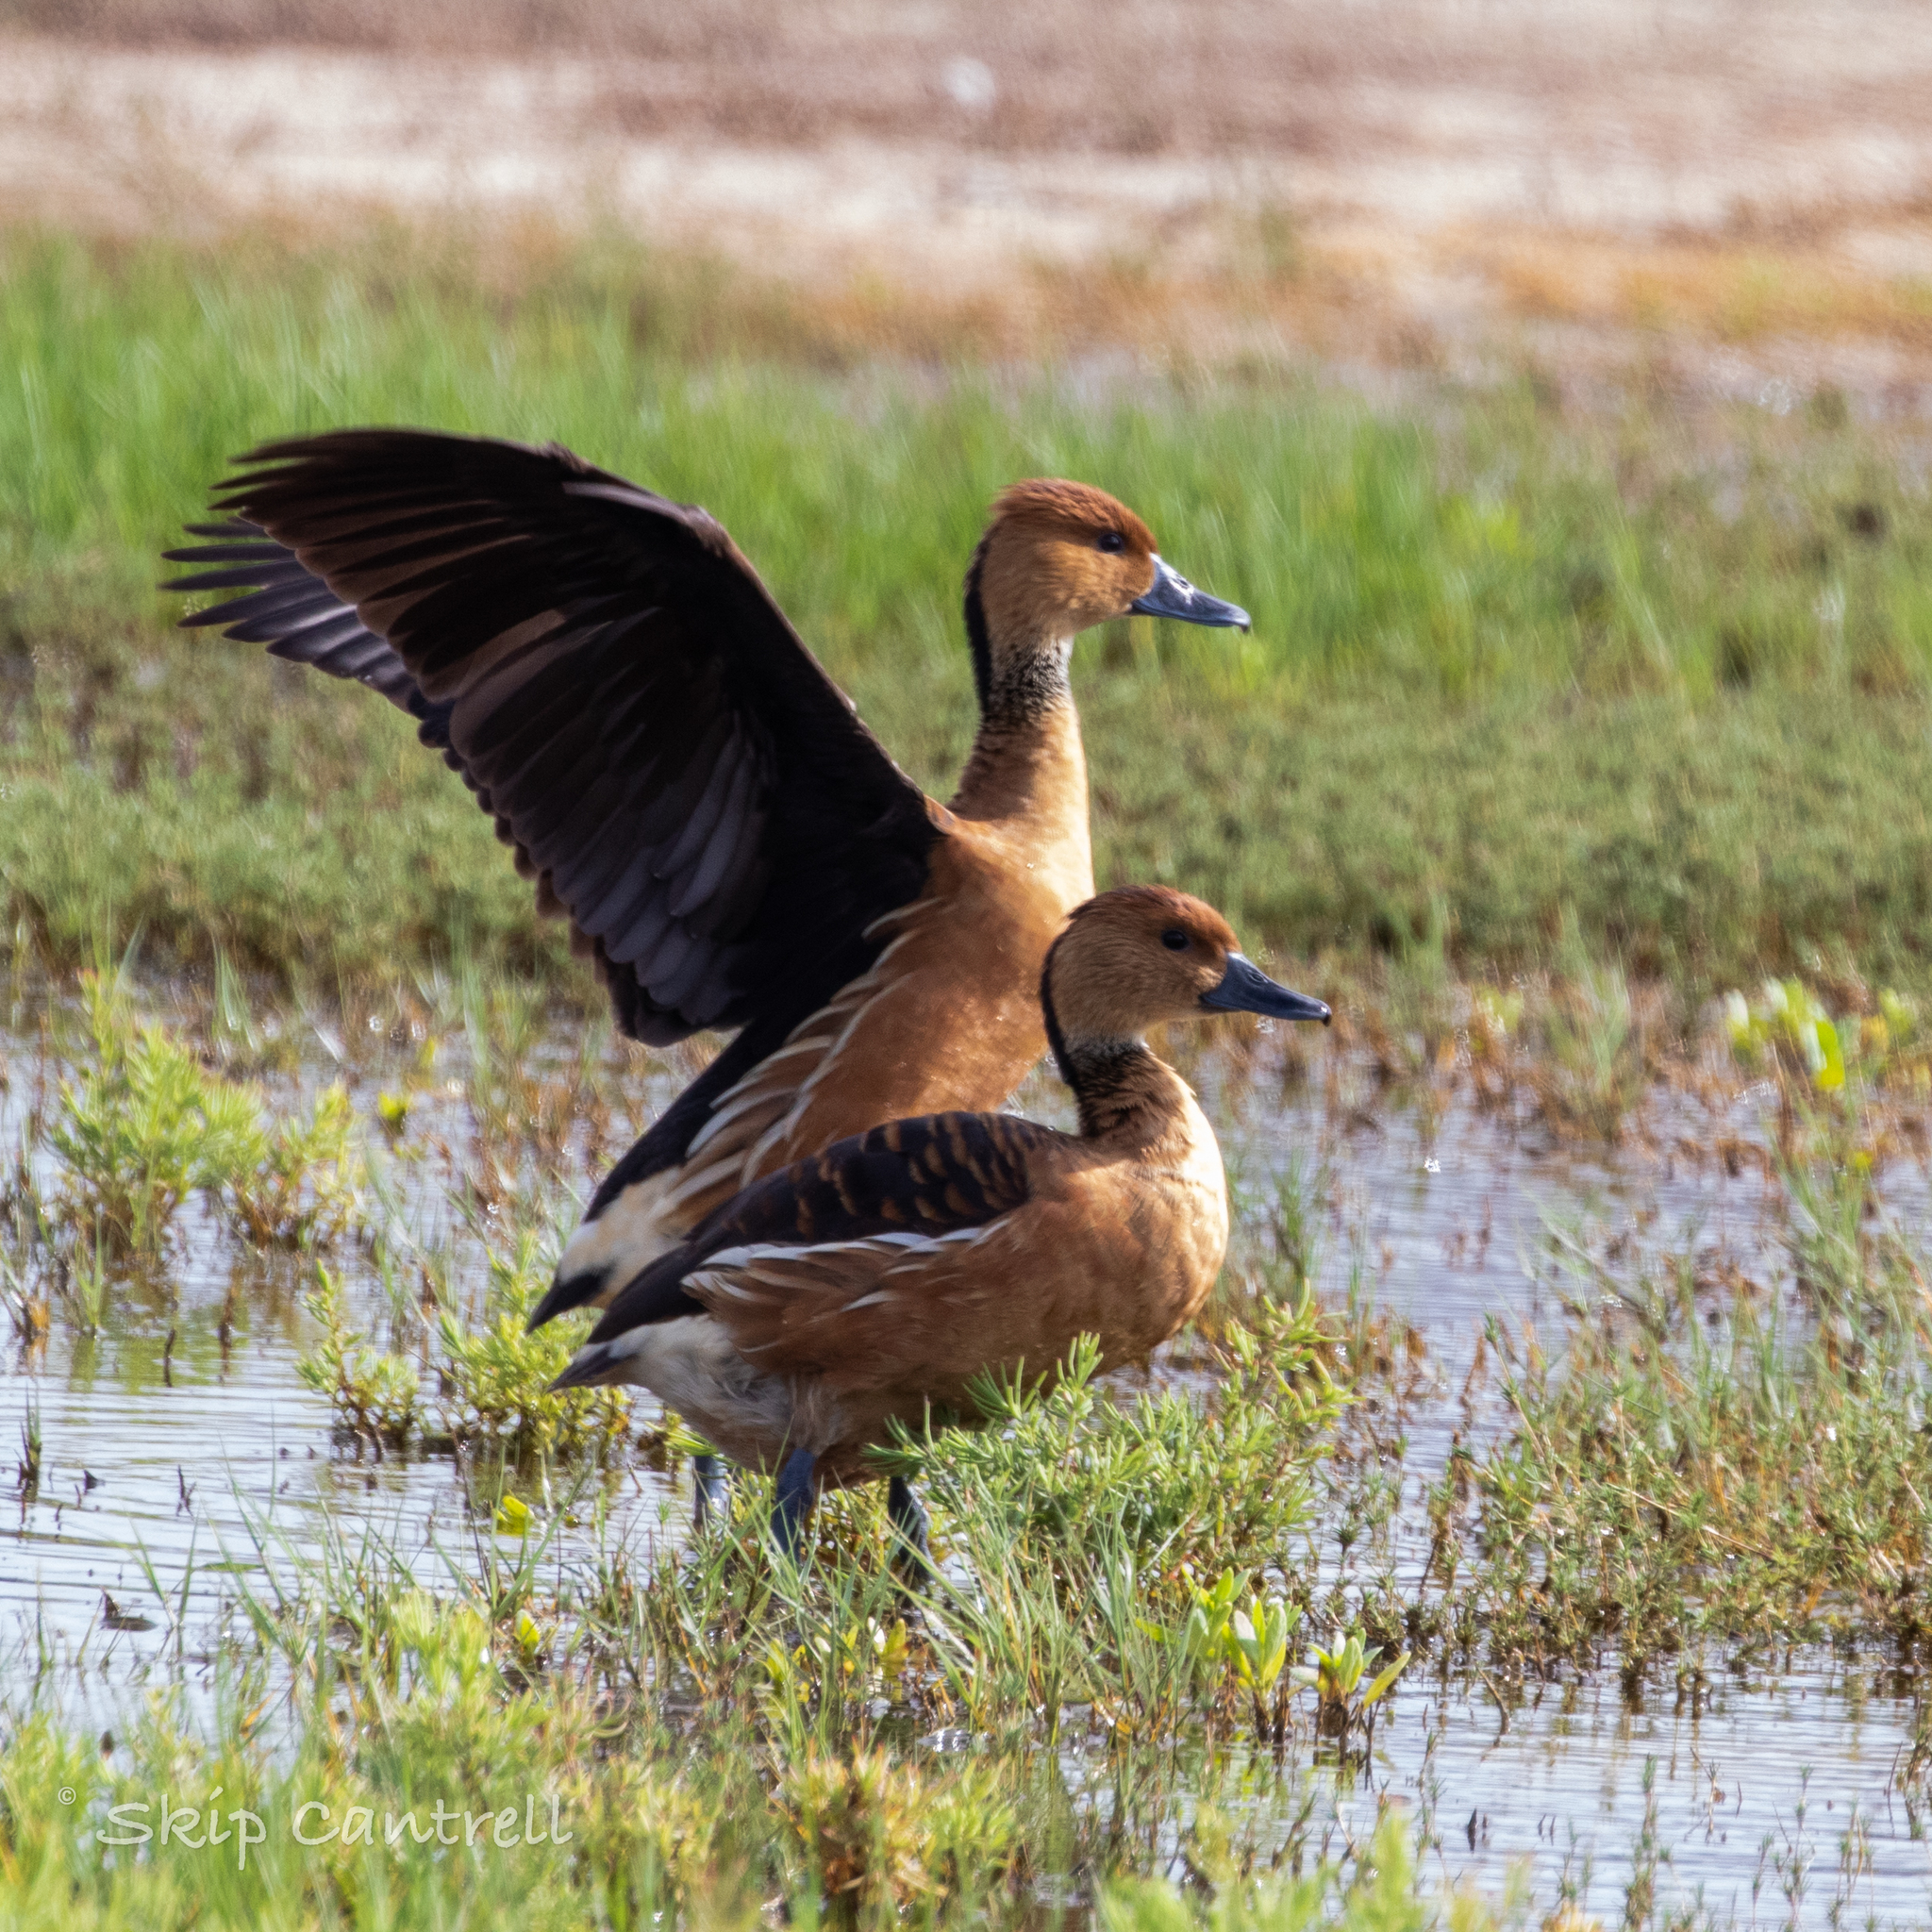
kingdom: Animalia
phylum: Chordata
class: Aves
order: Anseriformes
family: Anatidae
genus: Dendrocygna
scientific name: Dendrocygna bicolor
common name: Fulvous whistling duck
